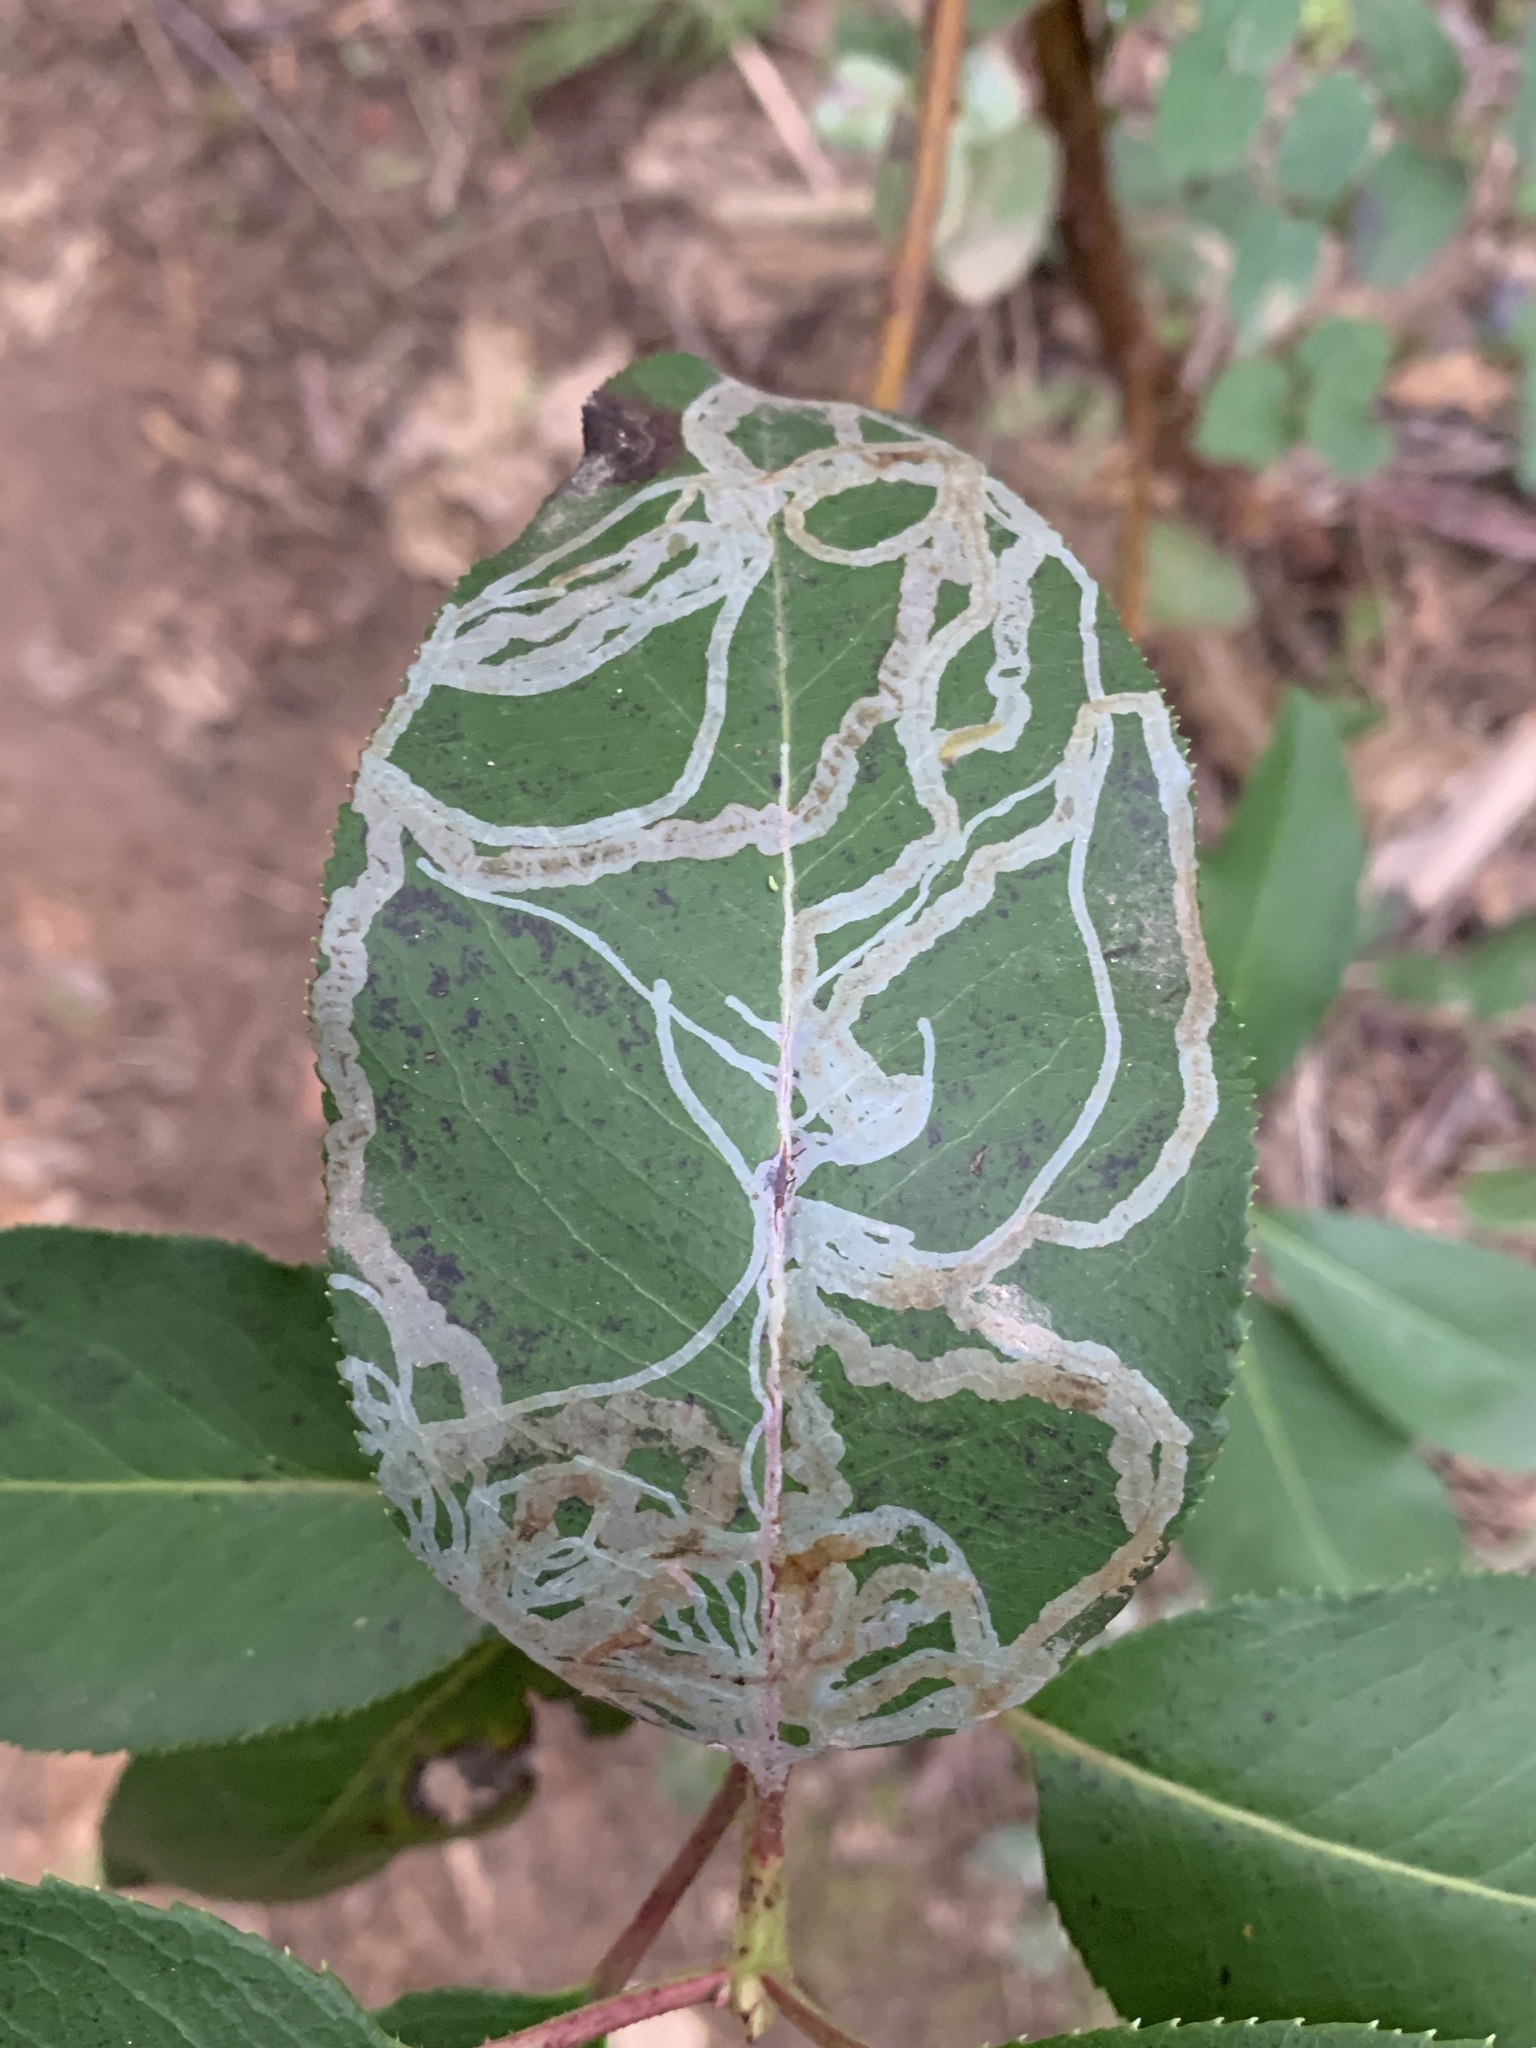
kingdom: Animalia
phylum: Arthropoda
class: Insecta
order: Lepidoptera
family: Gracillariidae
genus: Marmara
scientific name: Marmara arbutiella
